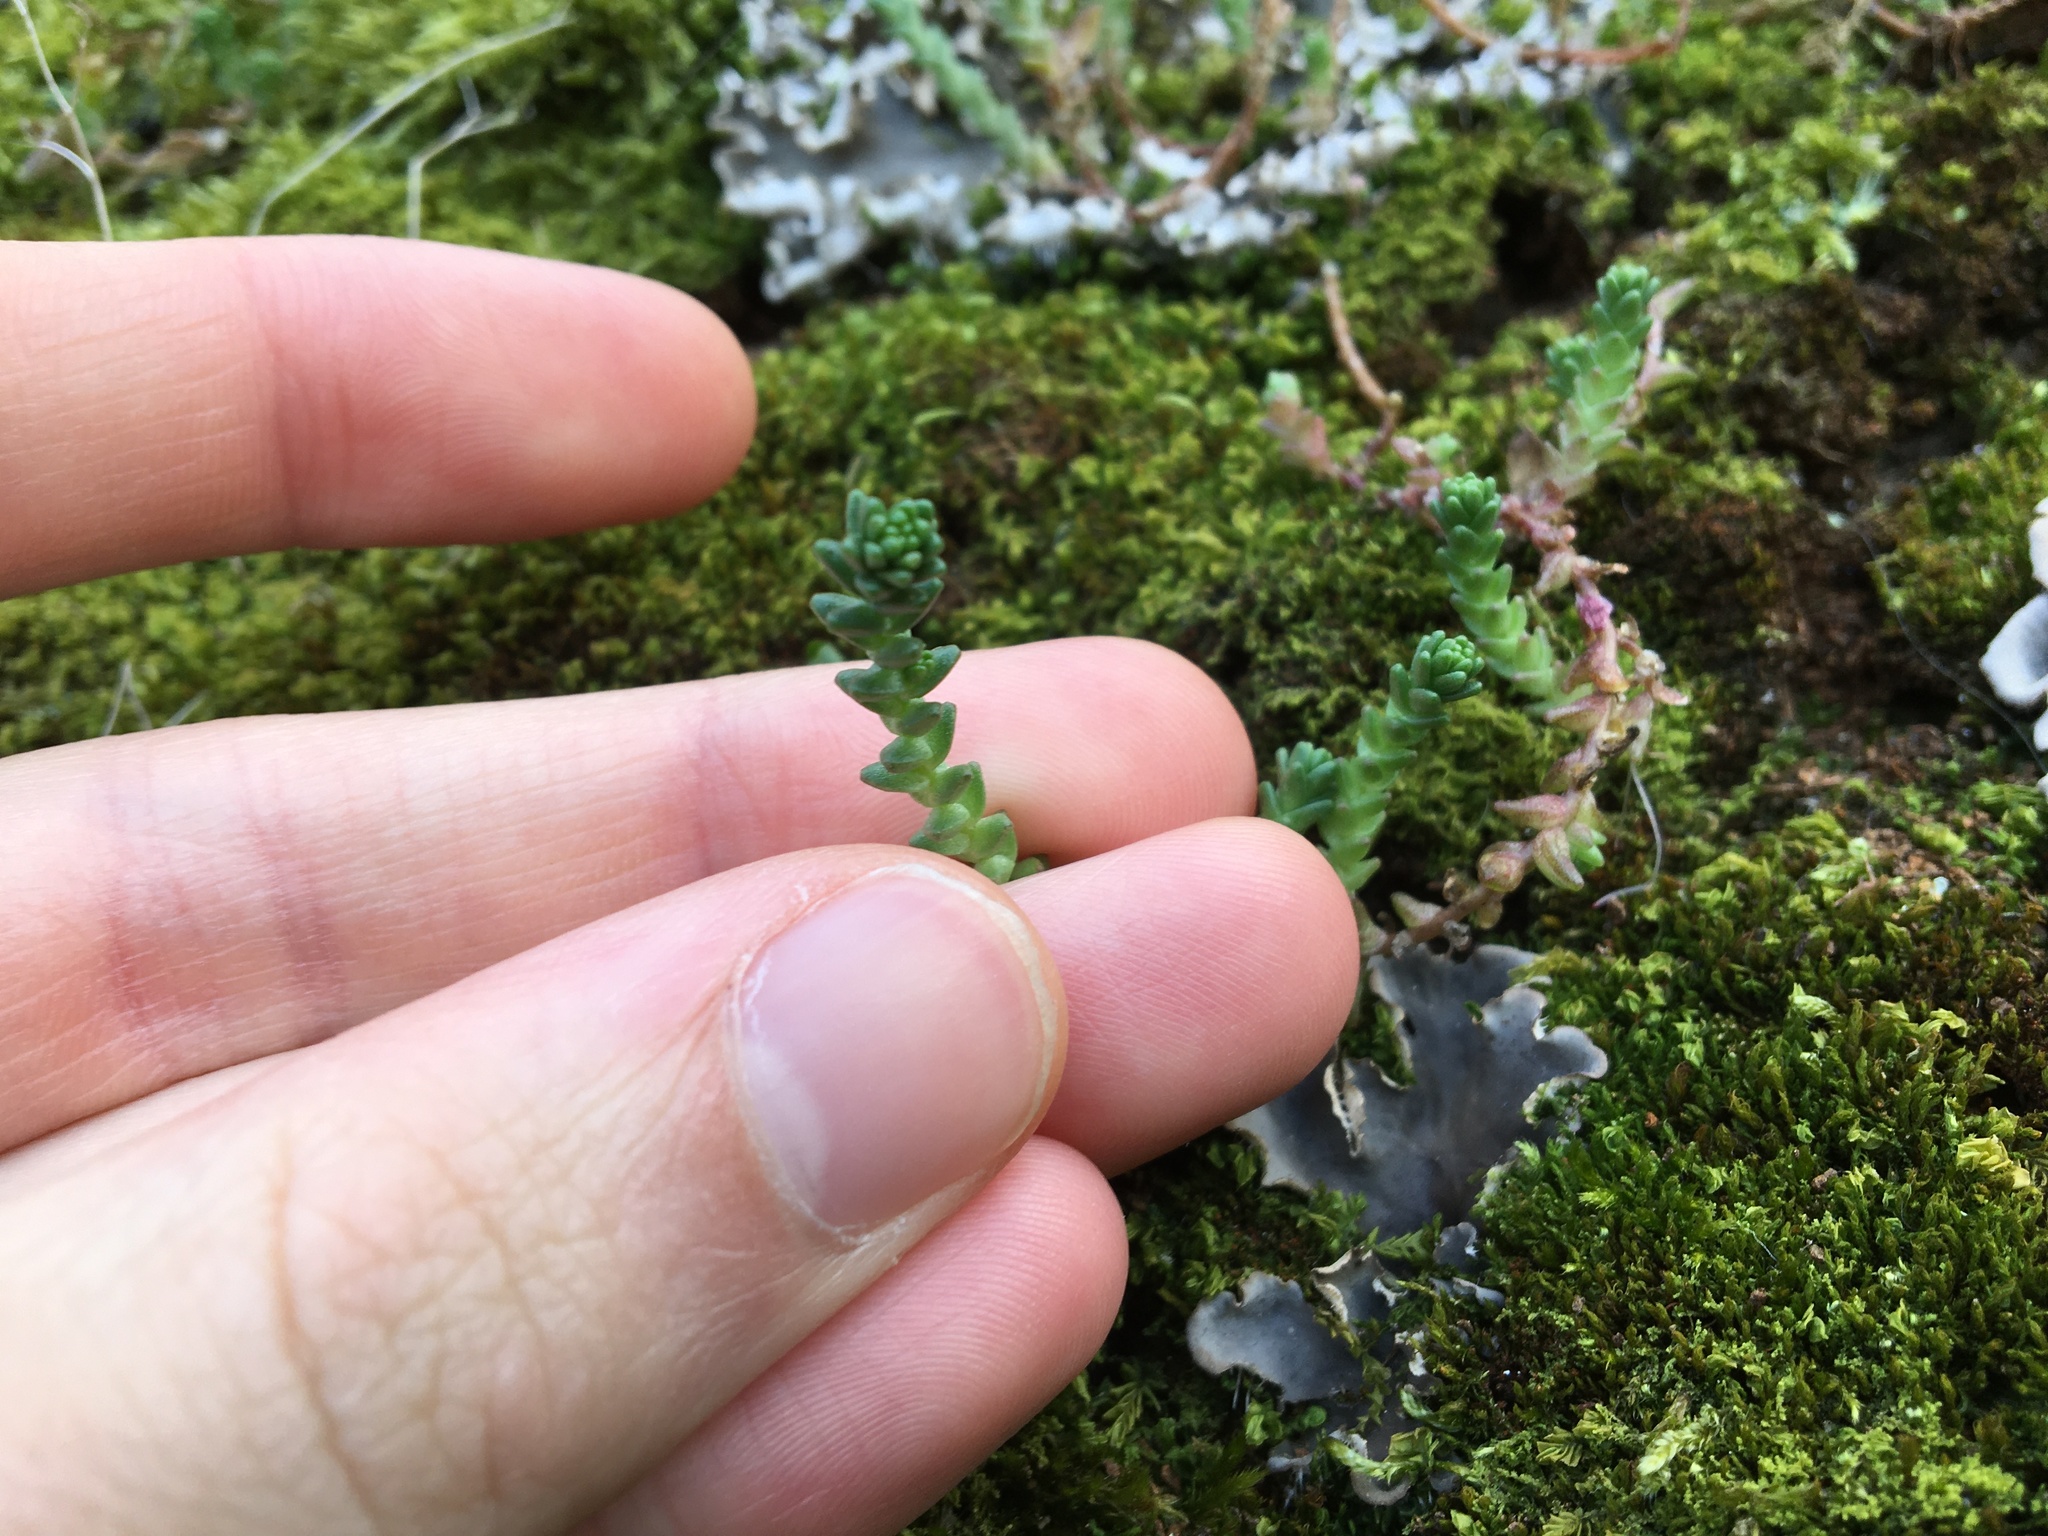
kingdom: Plantae
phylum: Tracheophyta
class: Magnoliopsida
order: Saxifragales
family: Crassulaceae
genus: Sedum
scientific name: Sedum acre
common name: Biting stonecrop
